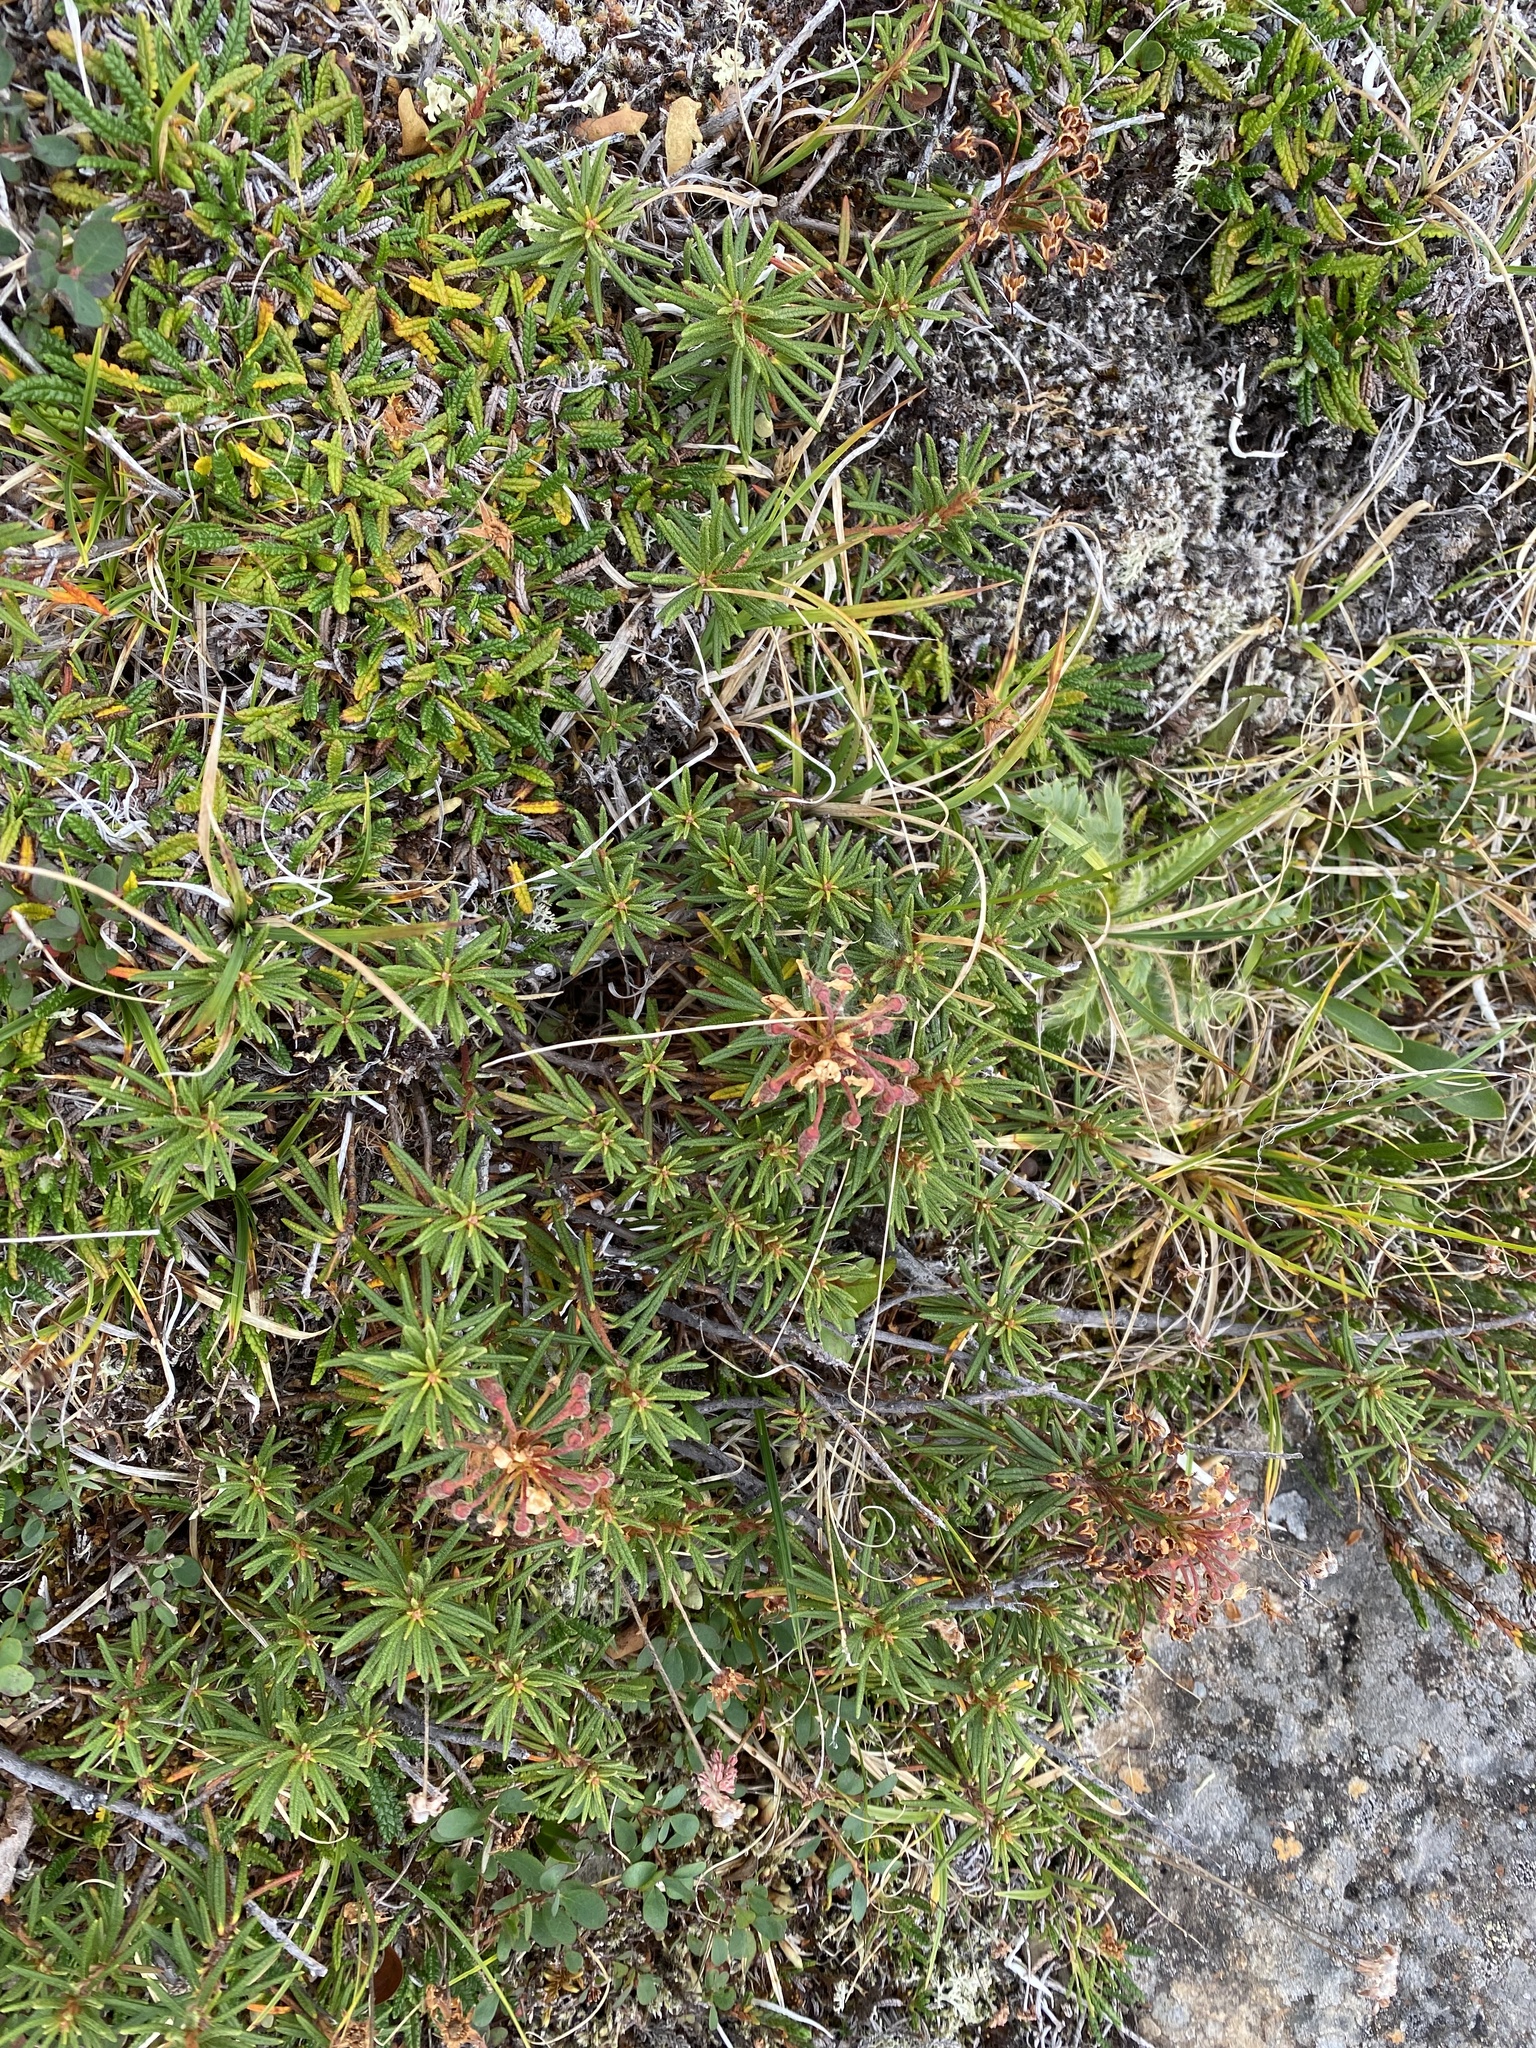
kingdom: Plantae
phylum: Tracheophyta
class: Magnoliopsida
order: Ericales
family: Ericaceae
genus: Rhododendron
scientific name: Rhododendron tomentosum
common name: Marsh labrador tea
